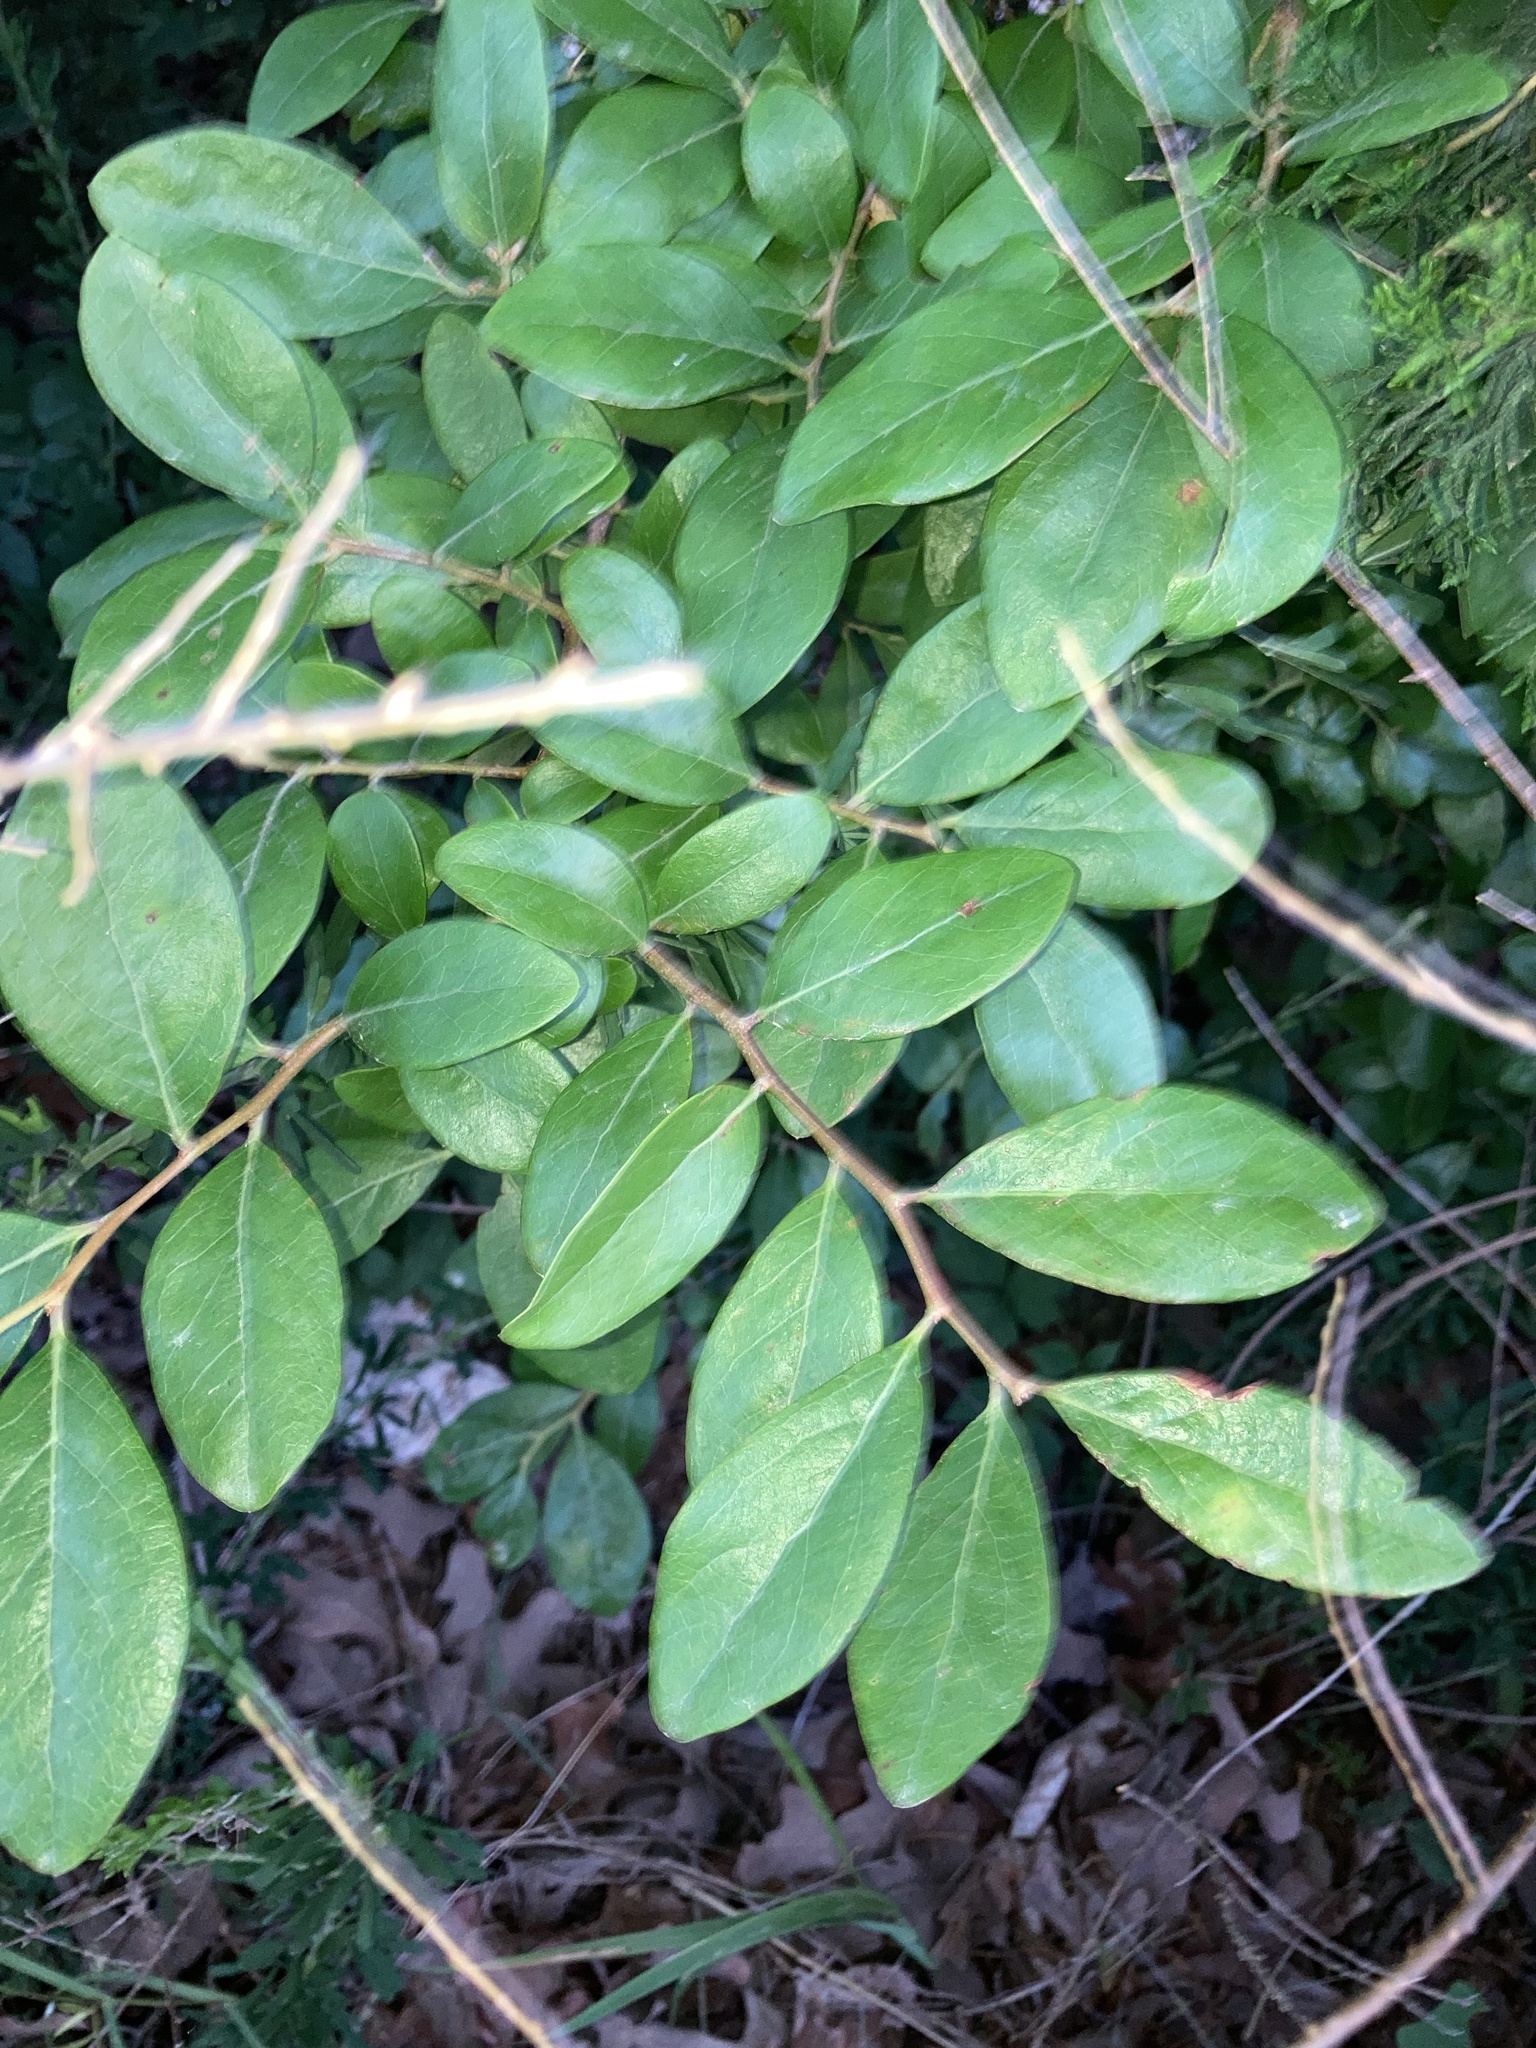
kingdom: Plantae
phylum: Tracheophyta
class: Magnoliopsida
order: Ericales
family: Ericaceae
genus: Vaccinium
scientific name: Vaccinium arboreum
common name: Farkleberry
